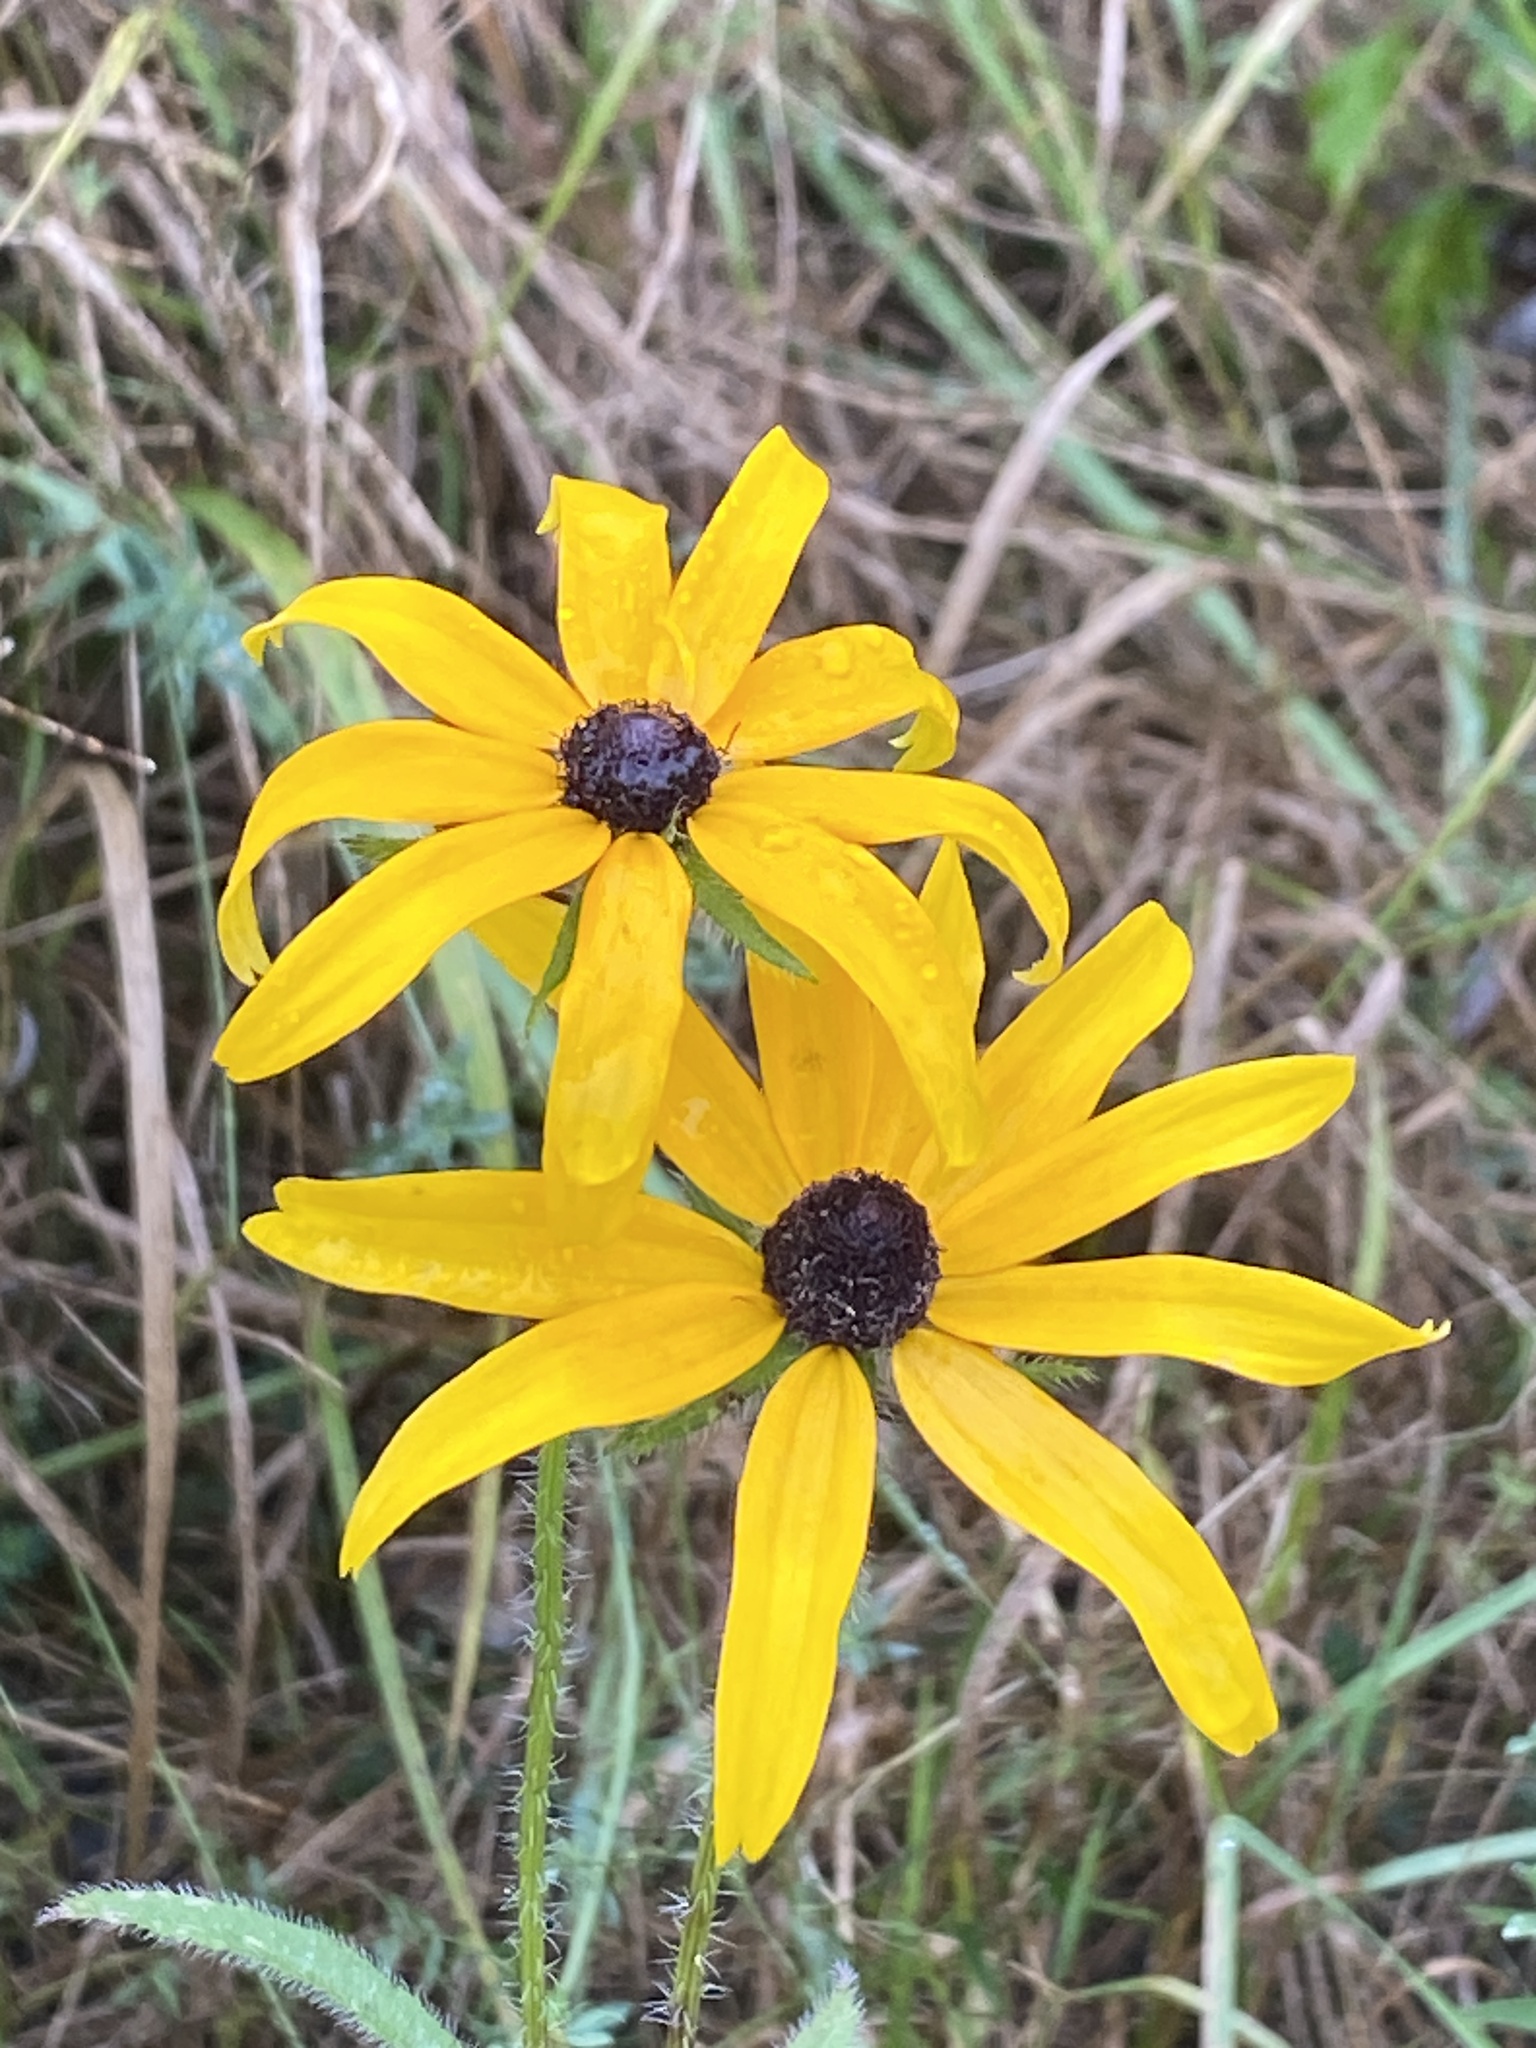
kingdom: Plantae
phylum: Tracheophyta
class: Magnoliopsida
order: Asterales
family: Asteraceae
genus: Rudbeckia
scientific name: Rudbeckia hirta
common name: Black-eyed-susan
